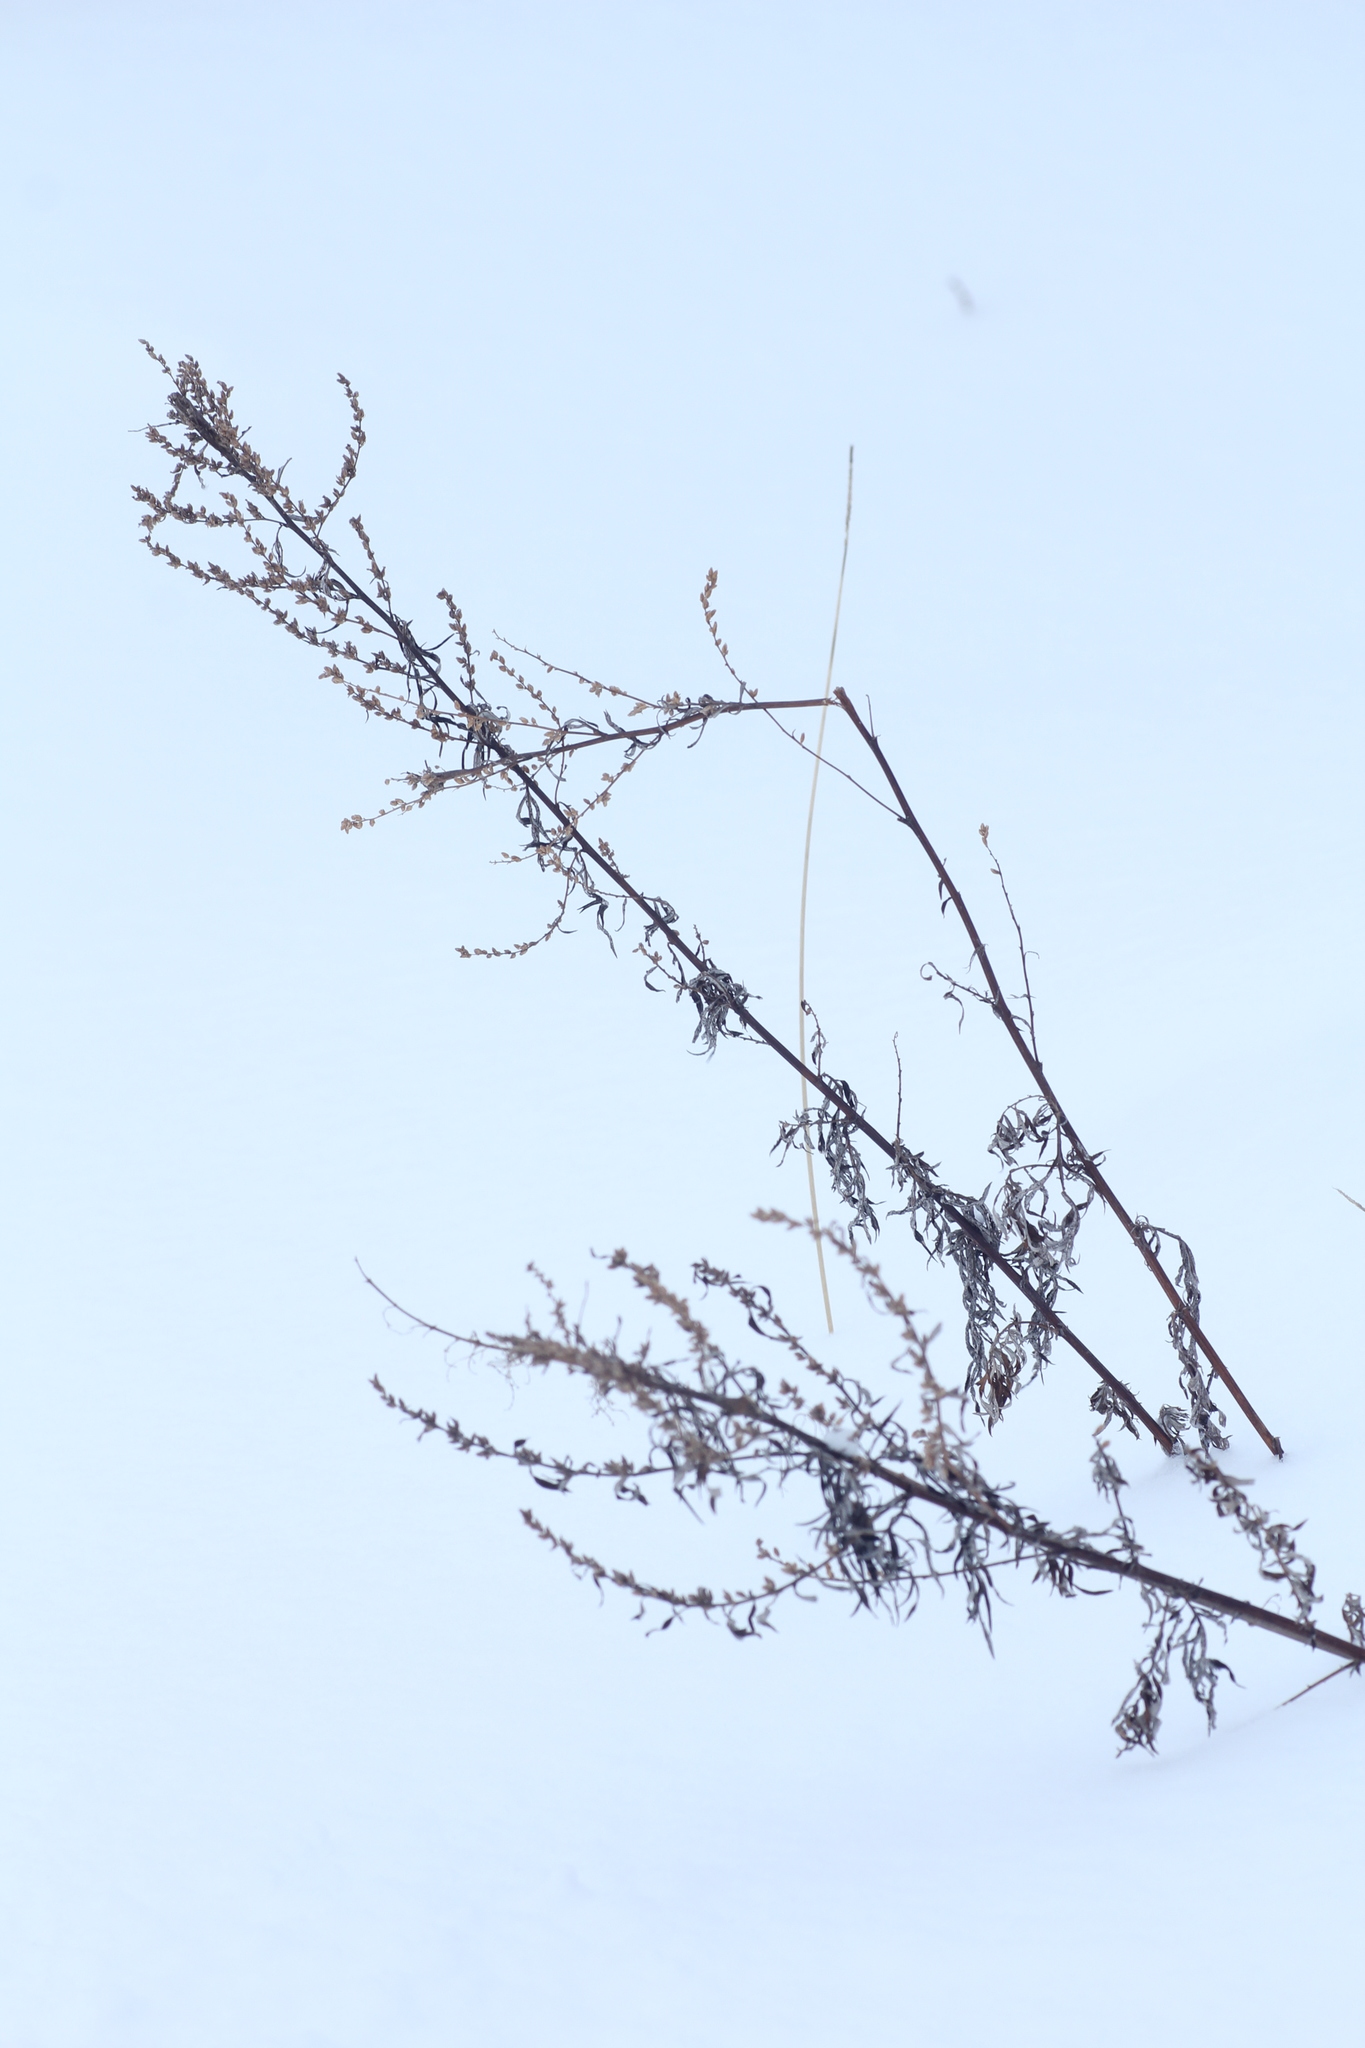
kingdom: Plantae
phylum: Tracheophyta
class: Magnoliopsida
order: Asterales
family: Asteraceae
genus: Artemisia
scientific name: Artemisia vulgaris
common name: Mugwort
